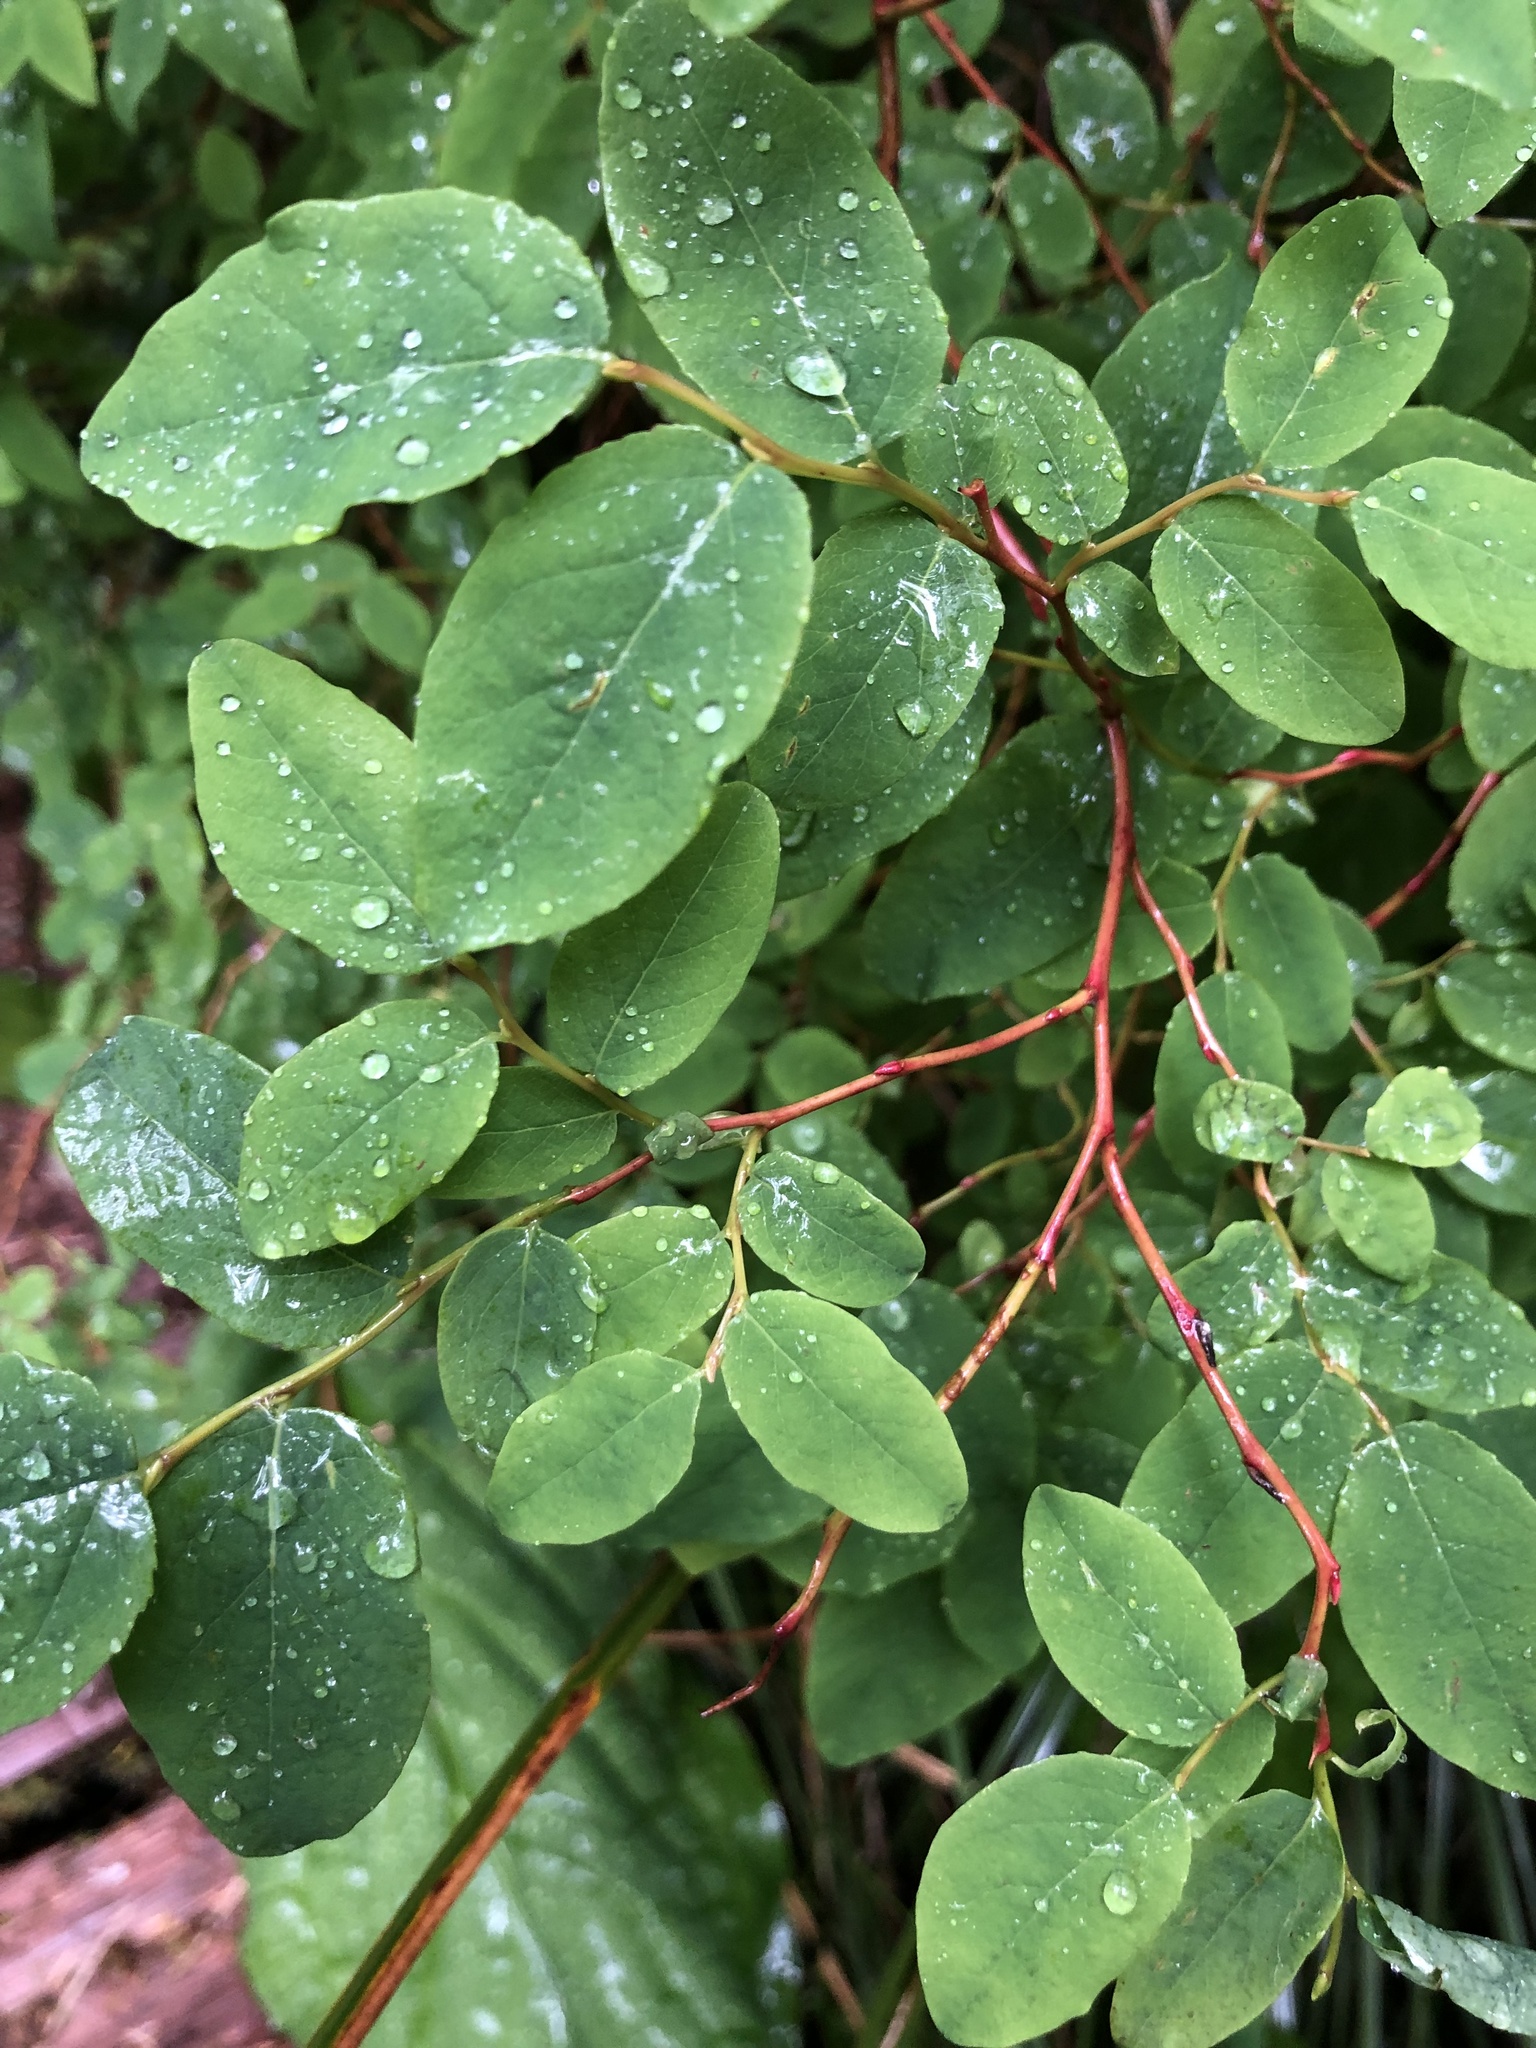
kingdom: Plantae
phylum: Tracheophyta
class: Magnoliopsida
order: Ericales
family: Ericaceae
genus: Vaccinium
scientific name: Vaccinium ovalifolium
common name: Early blueberry
